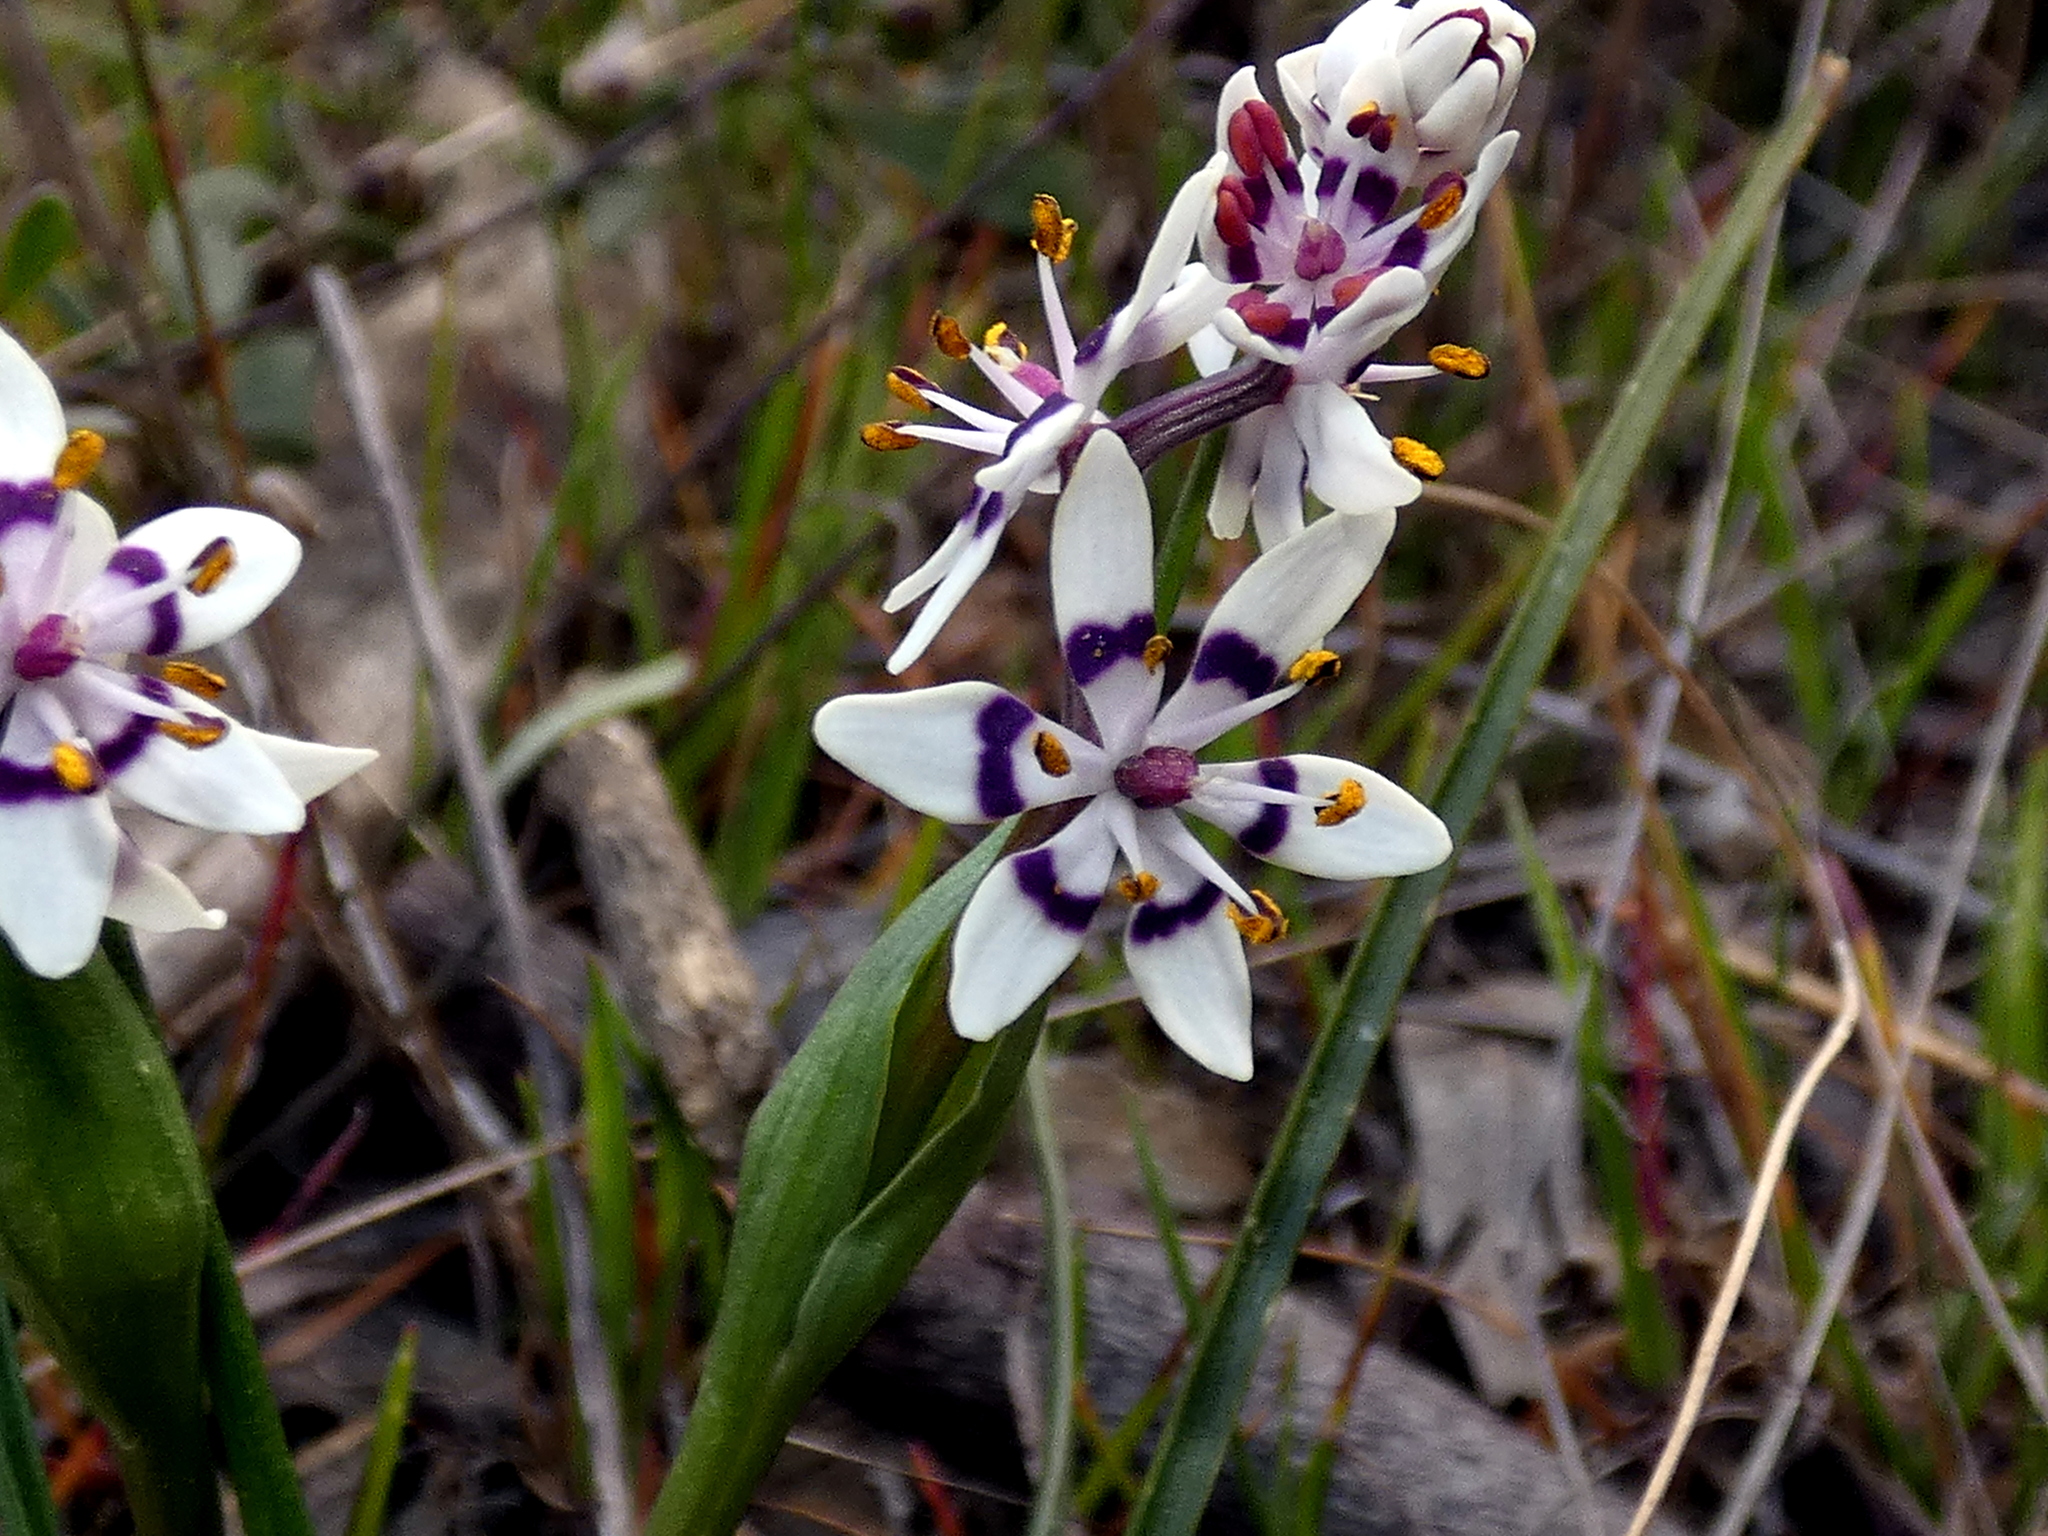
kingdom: Plantae
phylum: Tracheophyta
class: Liliopsida
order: Liliales
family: Colchicaceae
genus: Wurmbea
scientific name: Wurmbea dioica
